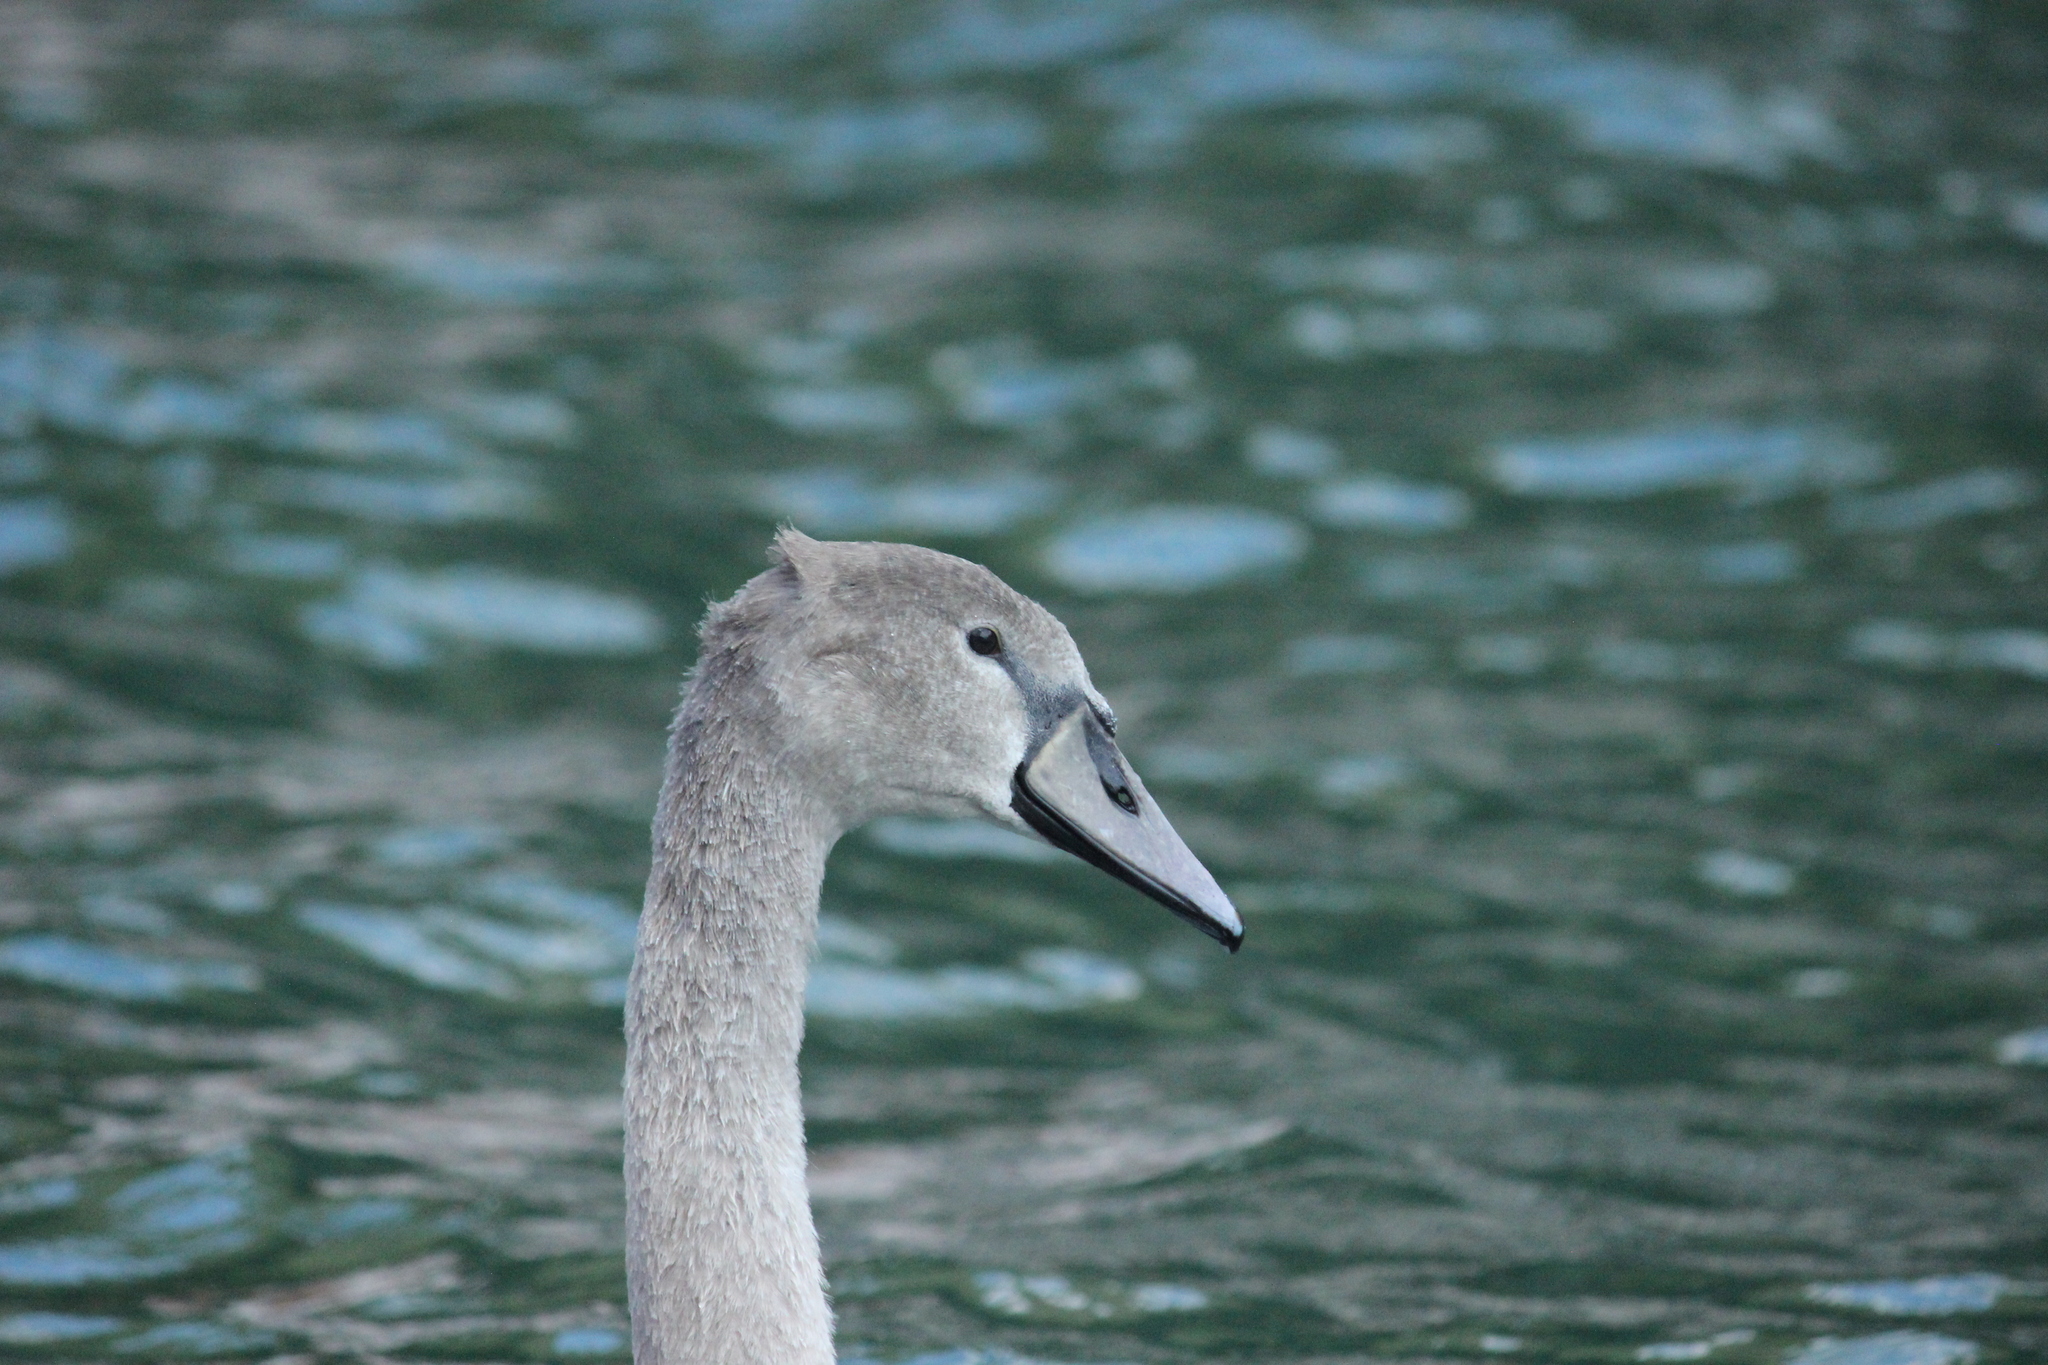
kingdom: Animalia
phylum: Chordata
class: Aves
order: Anseriformes
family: Anatidae
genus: Cygnus
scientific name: Cygnus olor
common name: Mute swan
